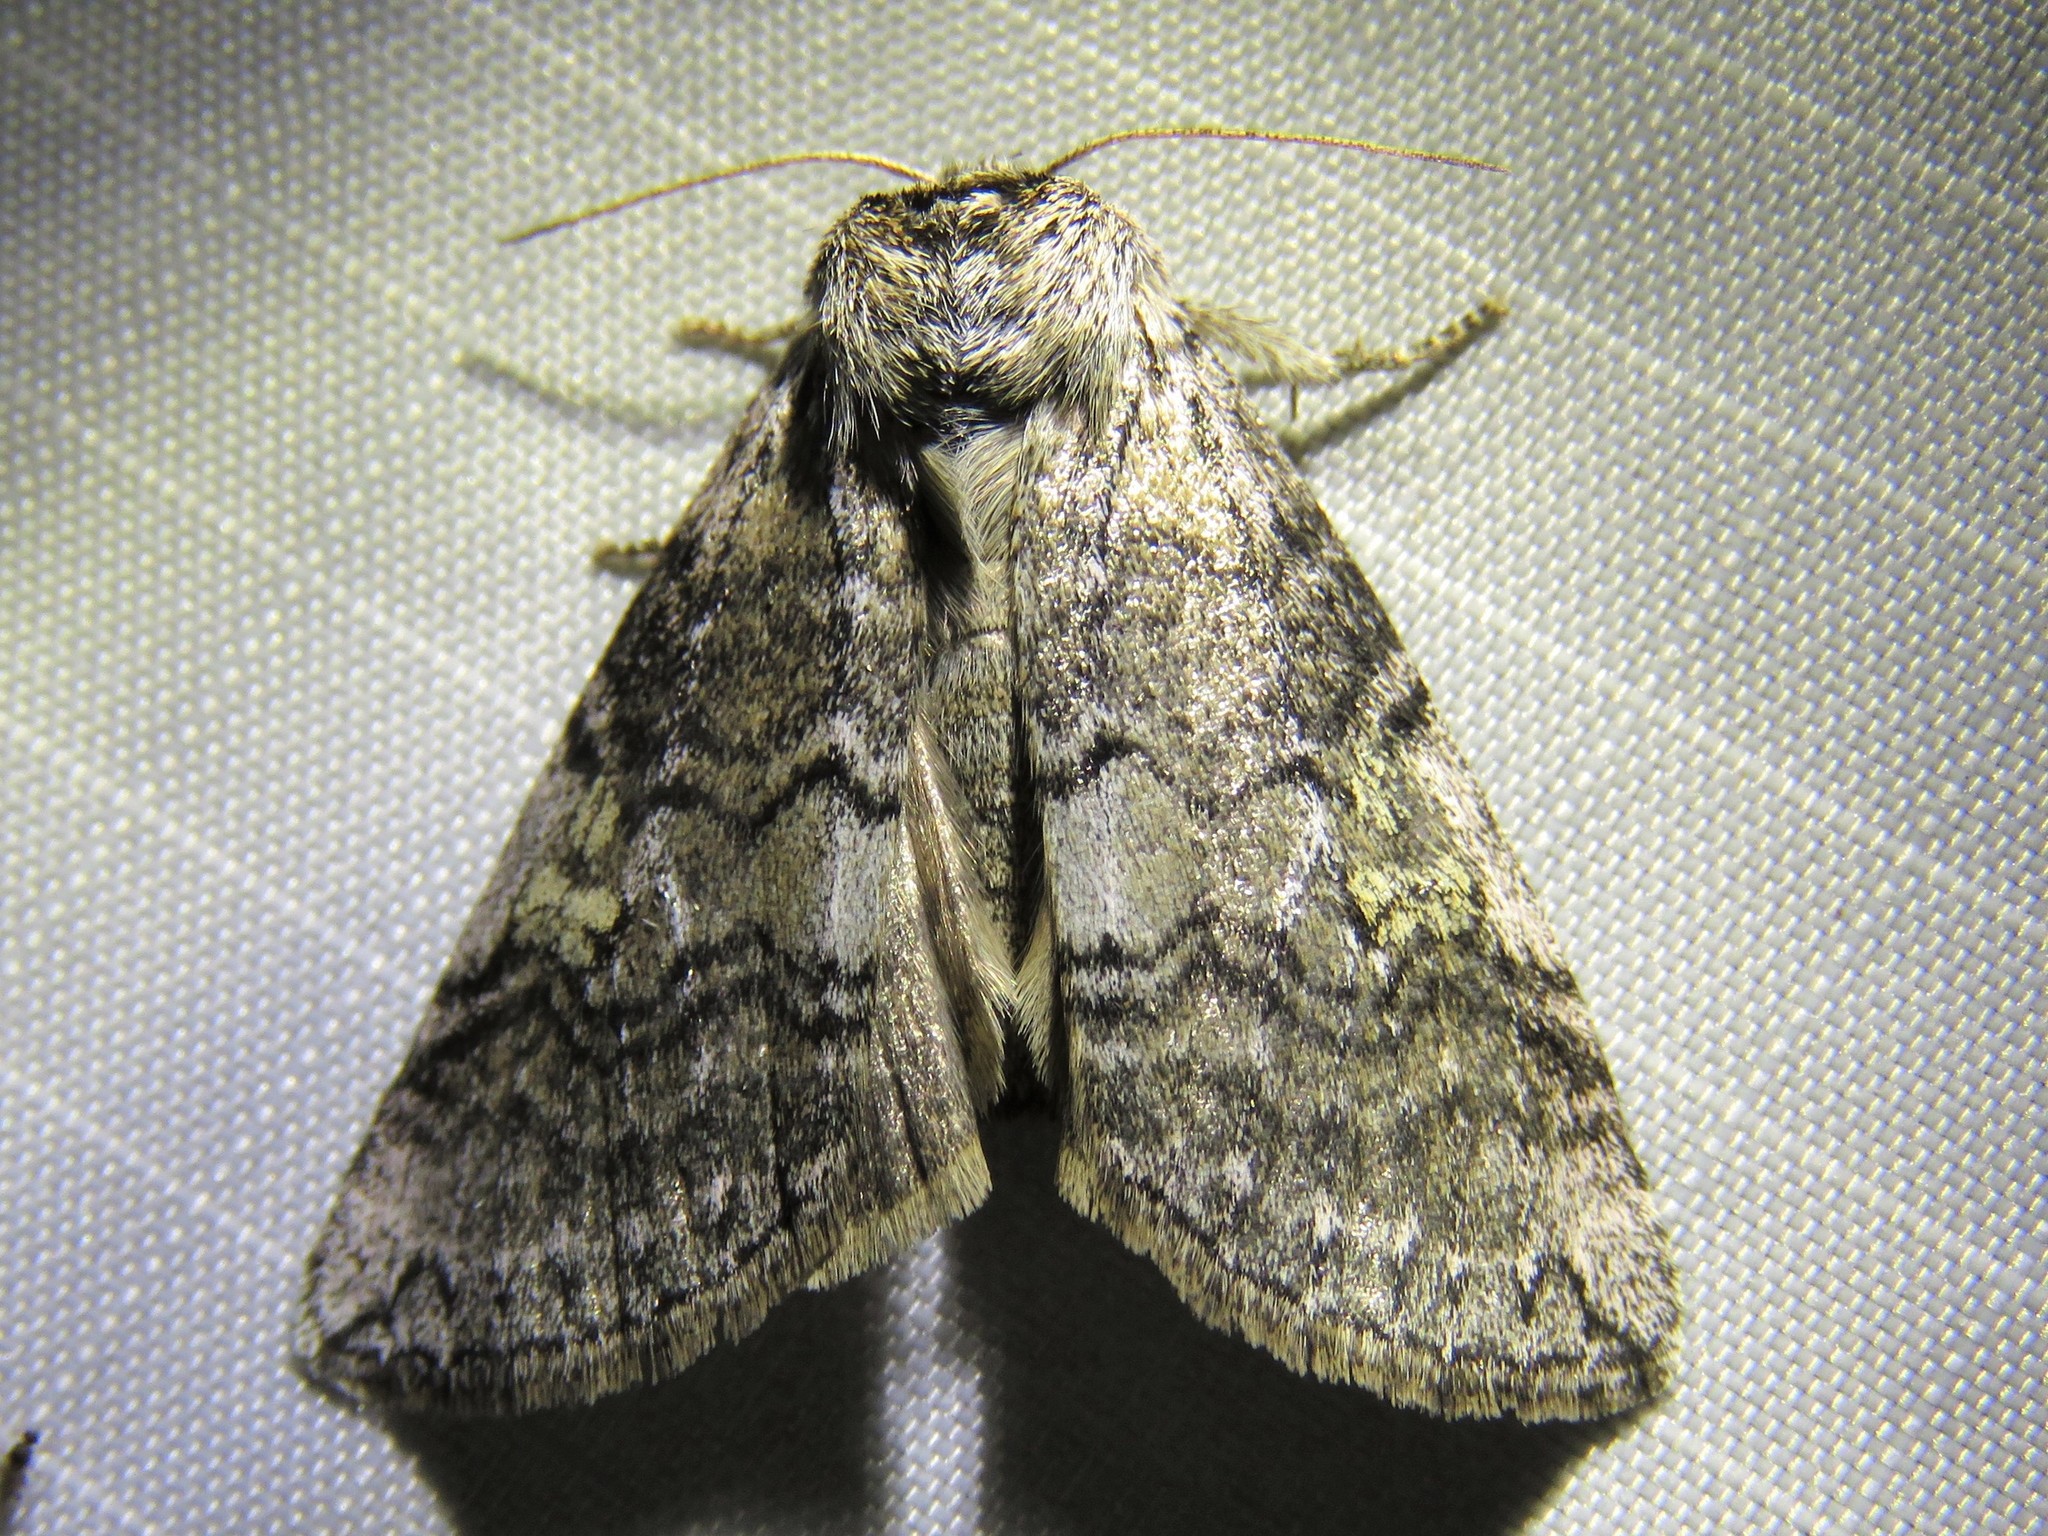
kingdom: Animalia
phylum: Arthropoda
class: Insecta
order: Lepidoptera
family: Drepanidae
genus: Tethea
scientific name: Tethea or
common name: Poplar lutestring
